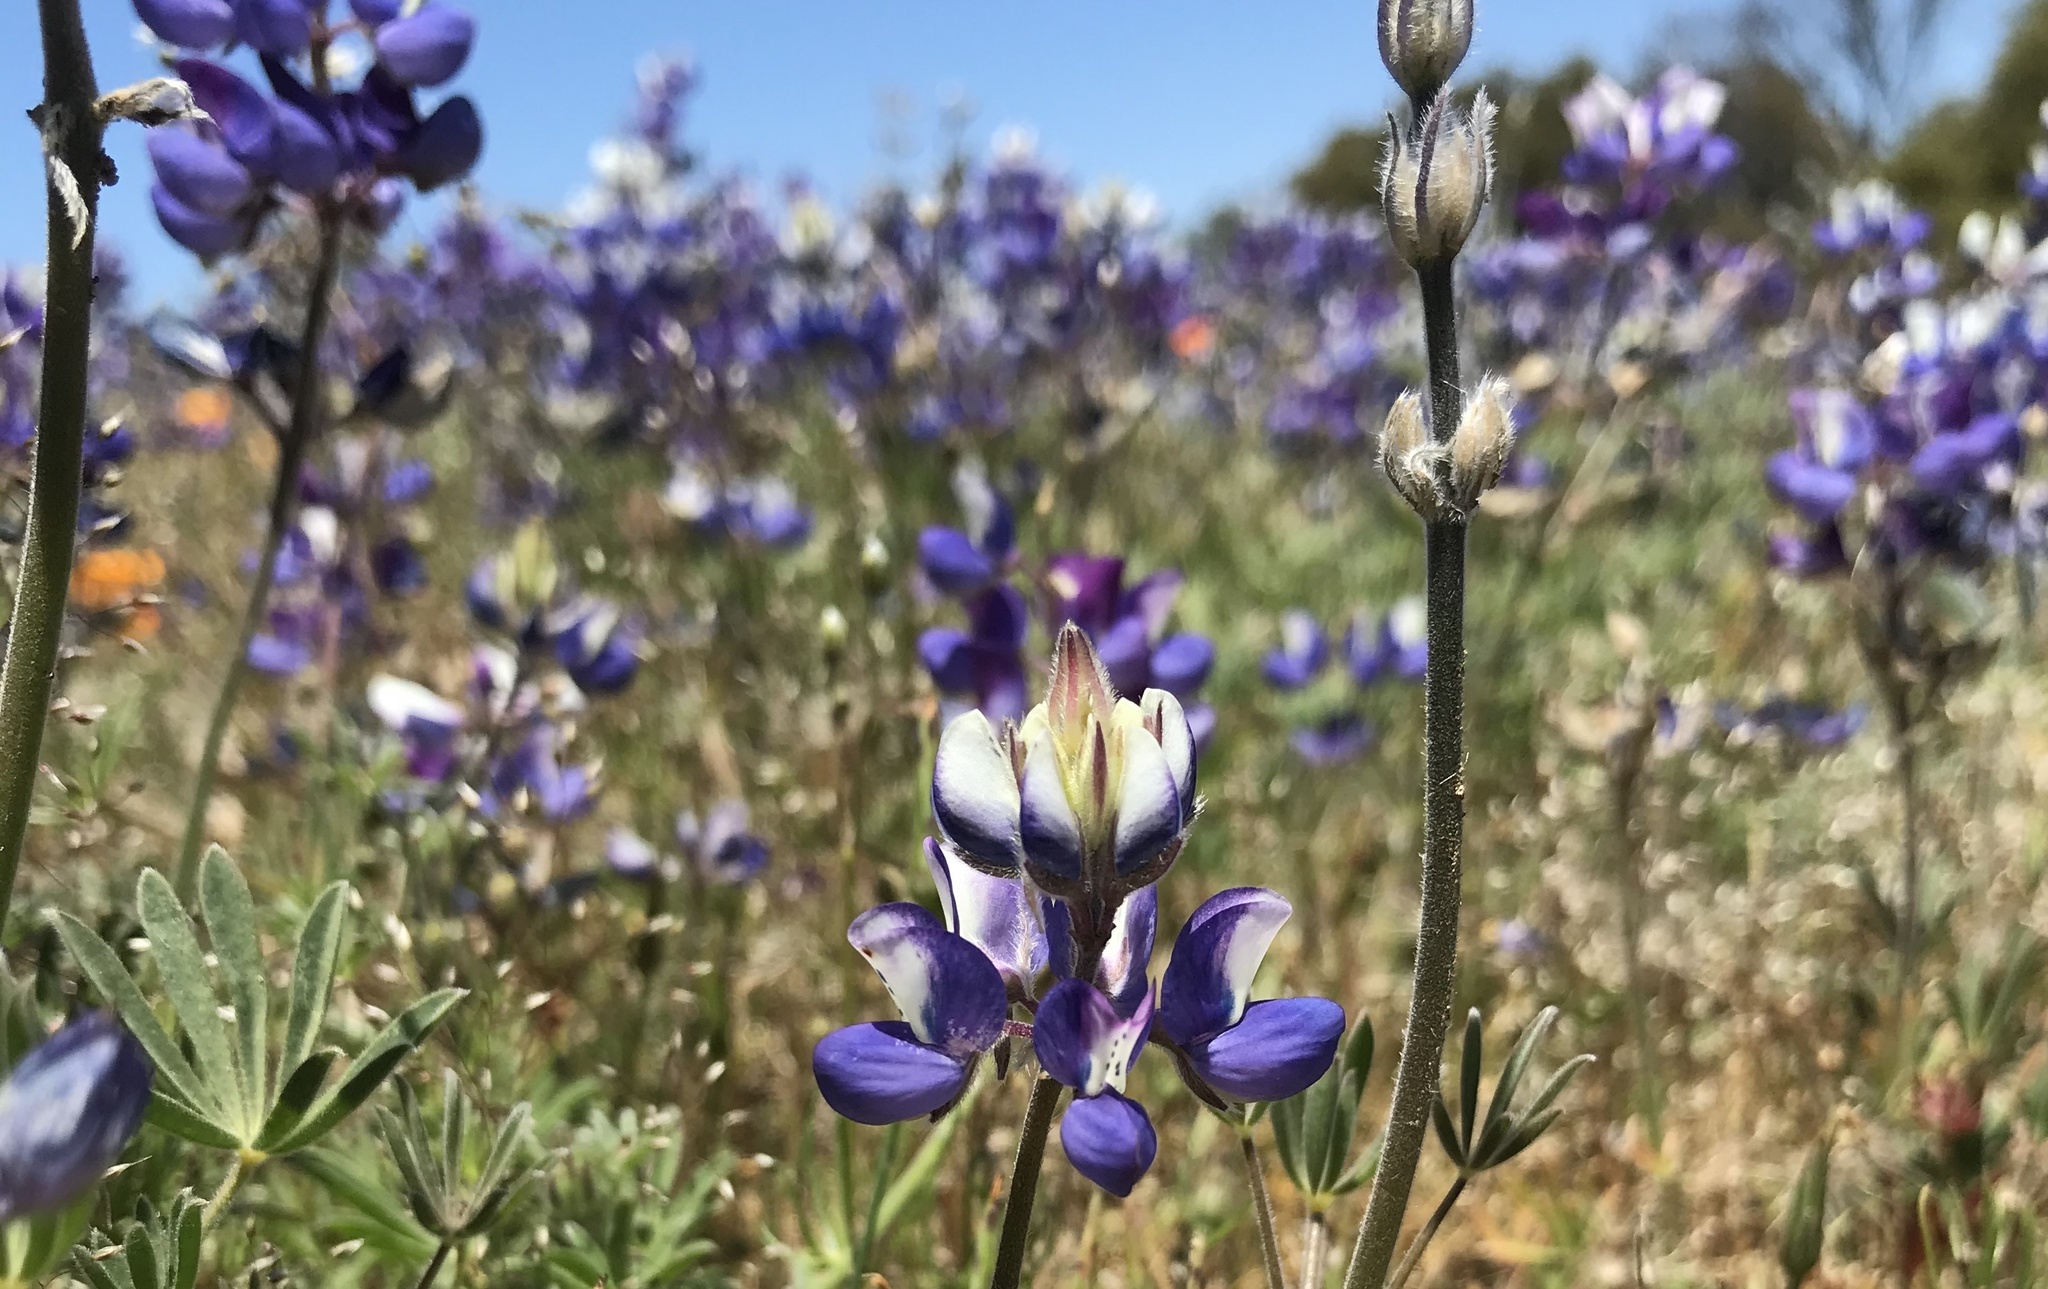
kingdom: Plantae
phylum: Tracheophyta
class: Magnoliopsida
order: Fabales
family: Fabaceae
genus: Lupinus
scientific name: Lupinus nanus
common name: Orean blue lupin
